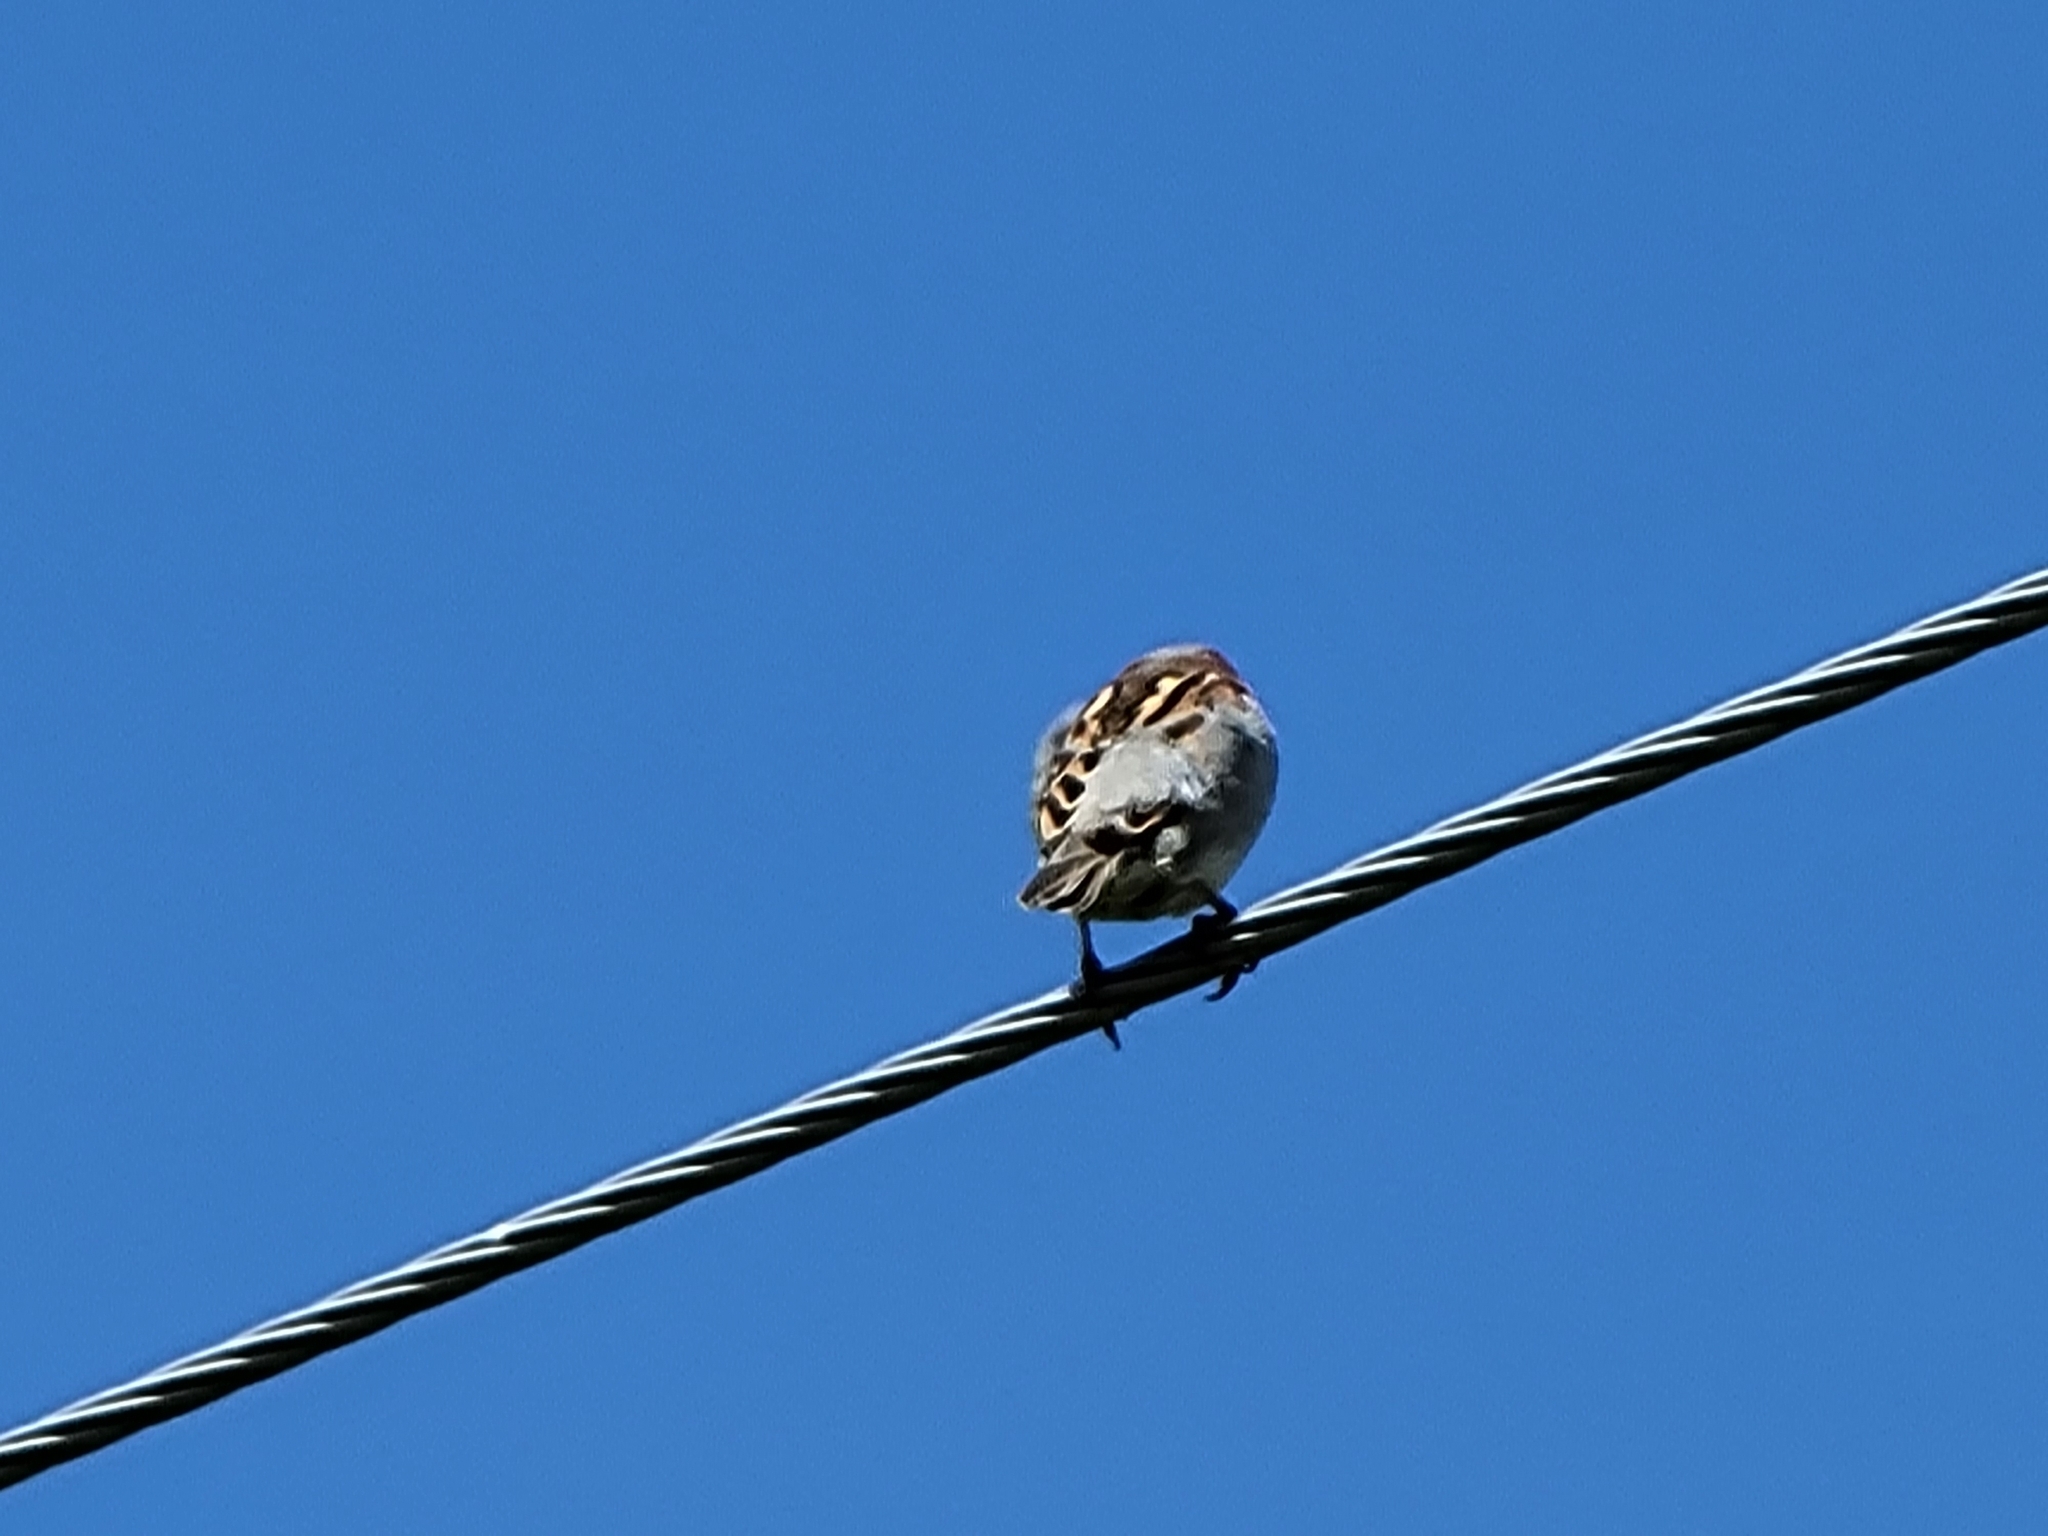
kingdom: Animalia
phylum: Chordata
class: Aves
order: Passeriformes
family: Passeridae
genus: Passer
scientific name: Passer domesticus
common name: House sparrow
